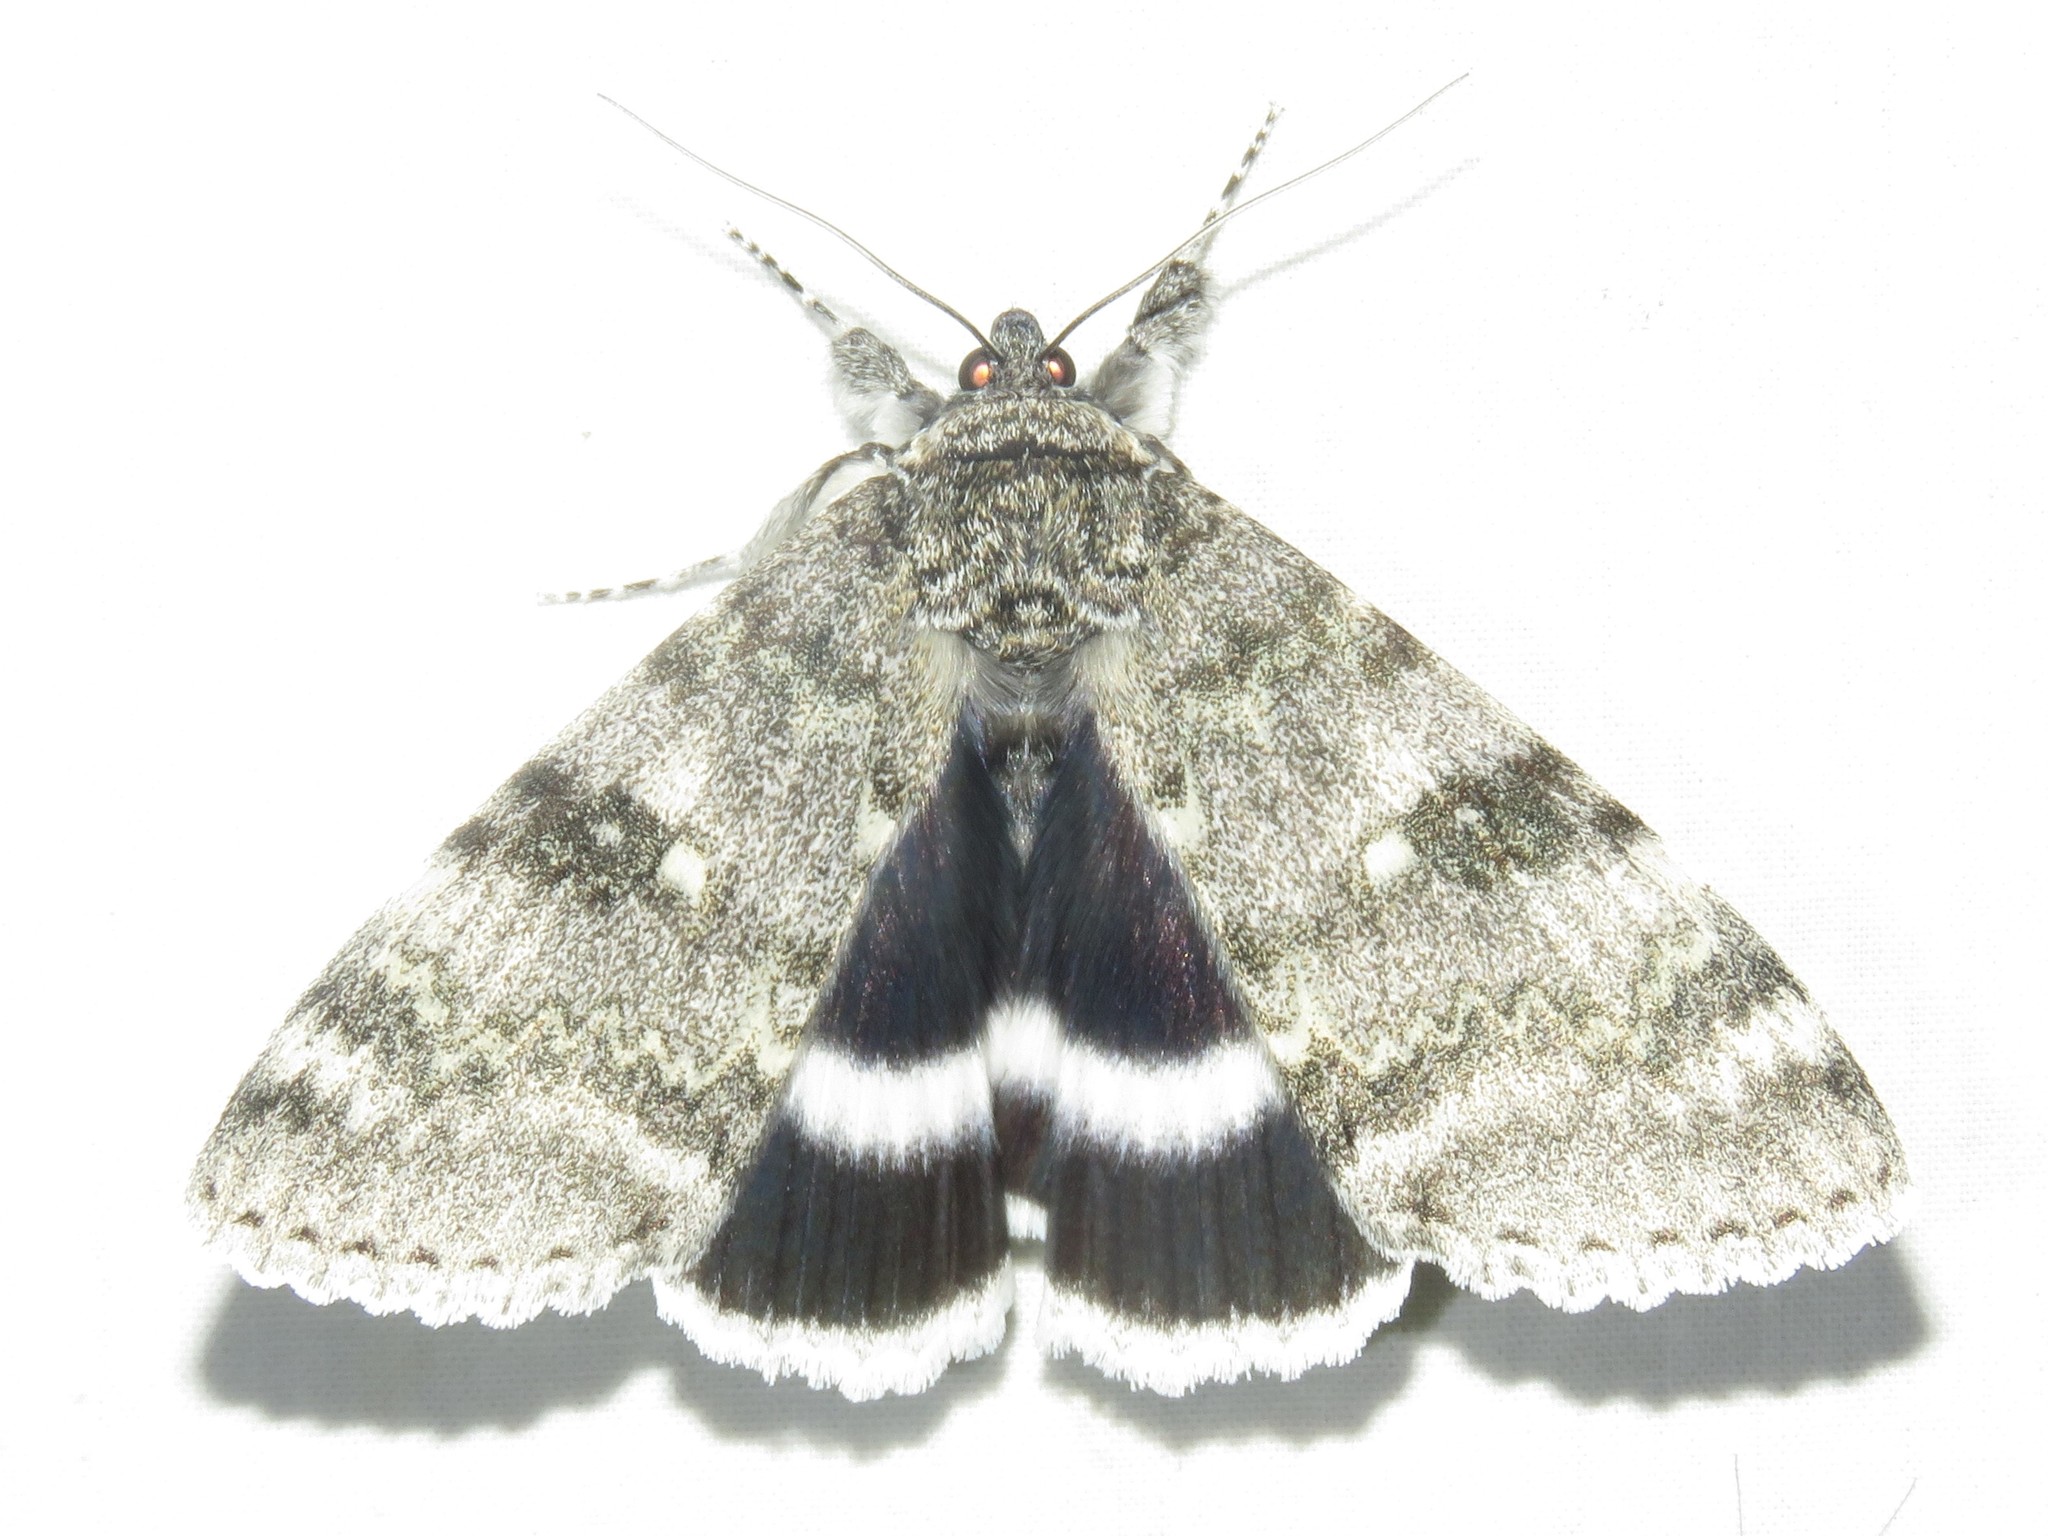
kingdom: Animalia
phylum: Arthropoda
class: Insecta
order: Lepidoptera
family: Erebidae
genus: Catocala
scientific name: Catocala relicta
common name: White underwing
